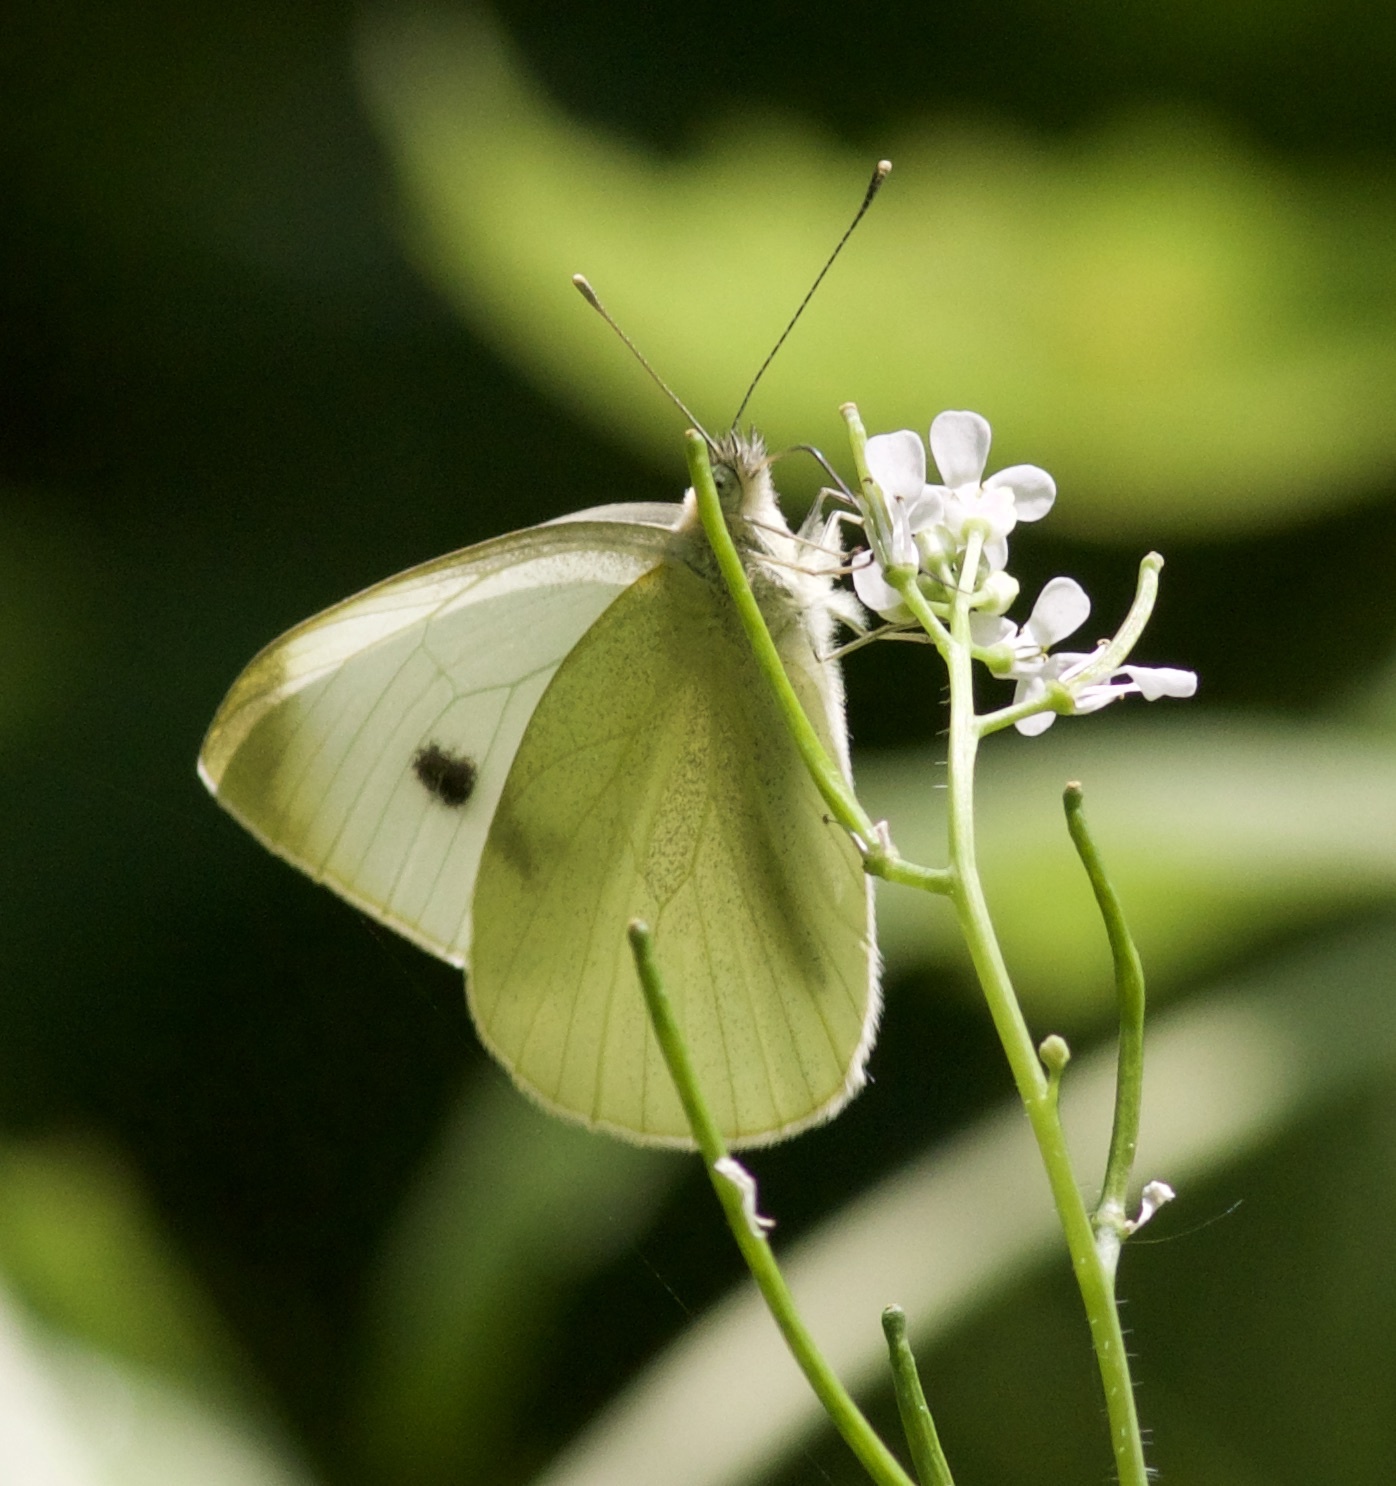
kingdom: Animalia
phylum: Arthropoda
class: Insecta
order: Lepidoptera
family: Pieridae
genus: Pieris
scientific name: Pieris rapae
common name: Small white
